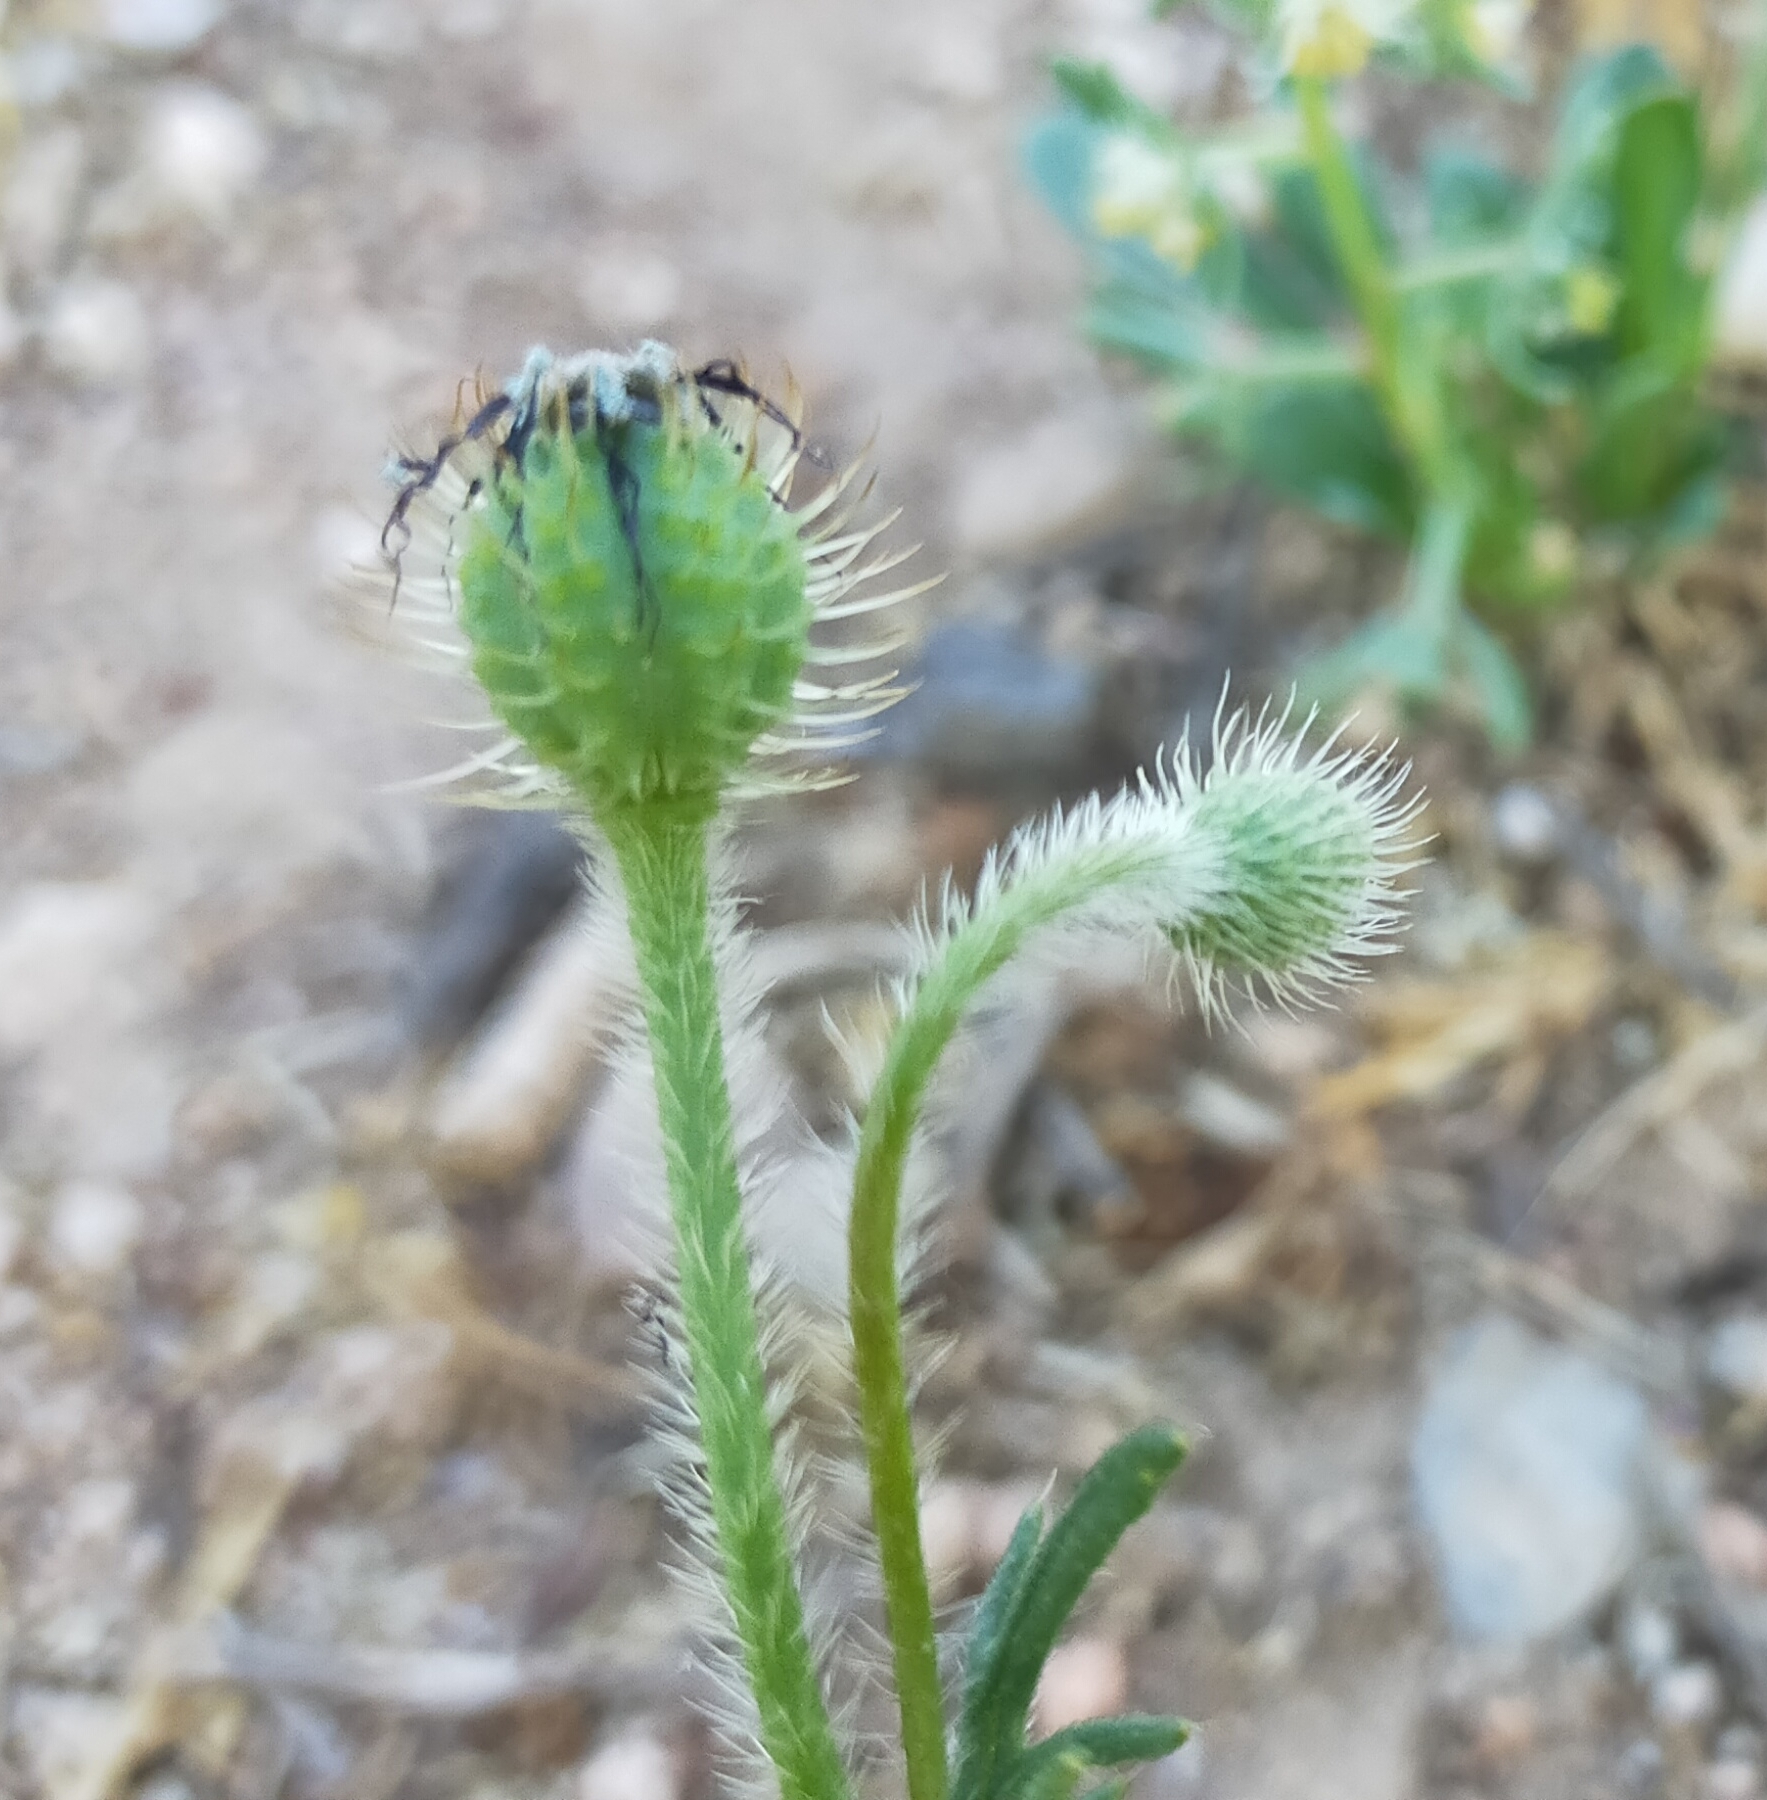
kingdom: Plantae
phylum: Tracheophyta
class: Magnoliopsida
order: Ranunculales
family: Papaveraceae
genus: Roemeria
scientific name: Roemeria hispida
